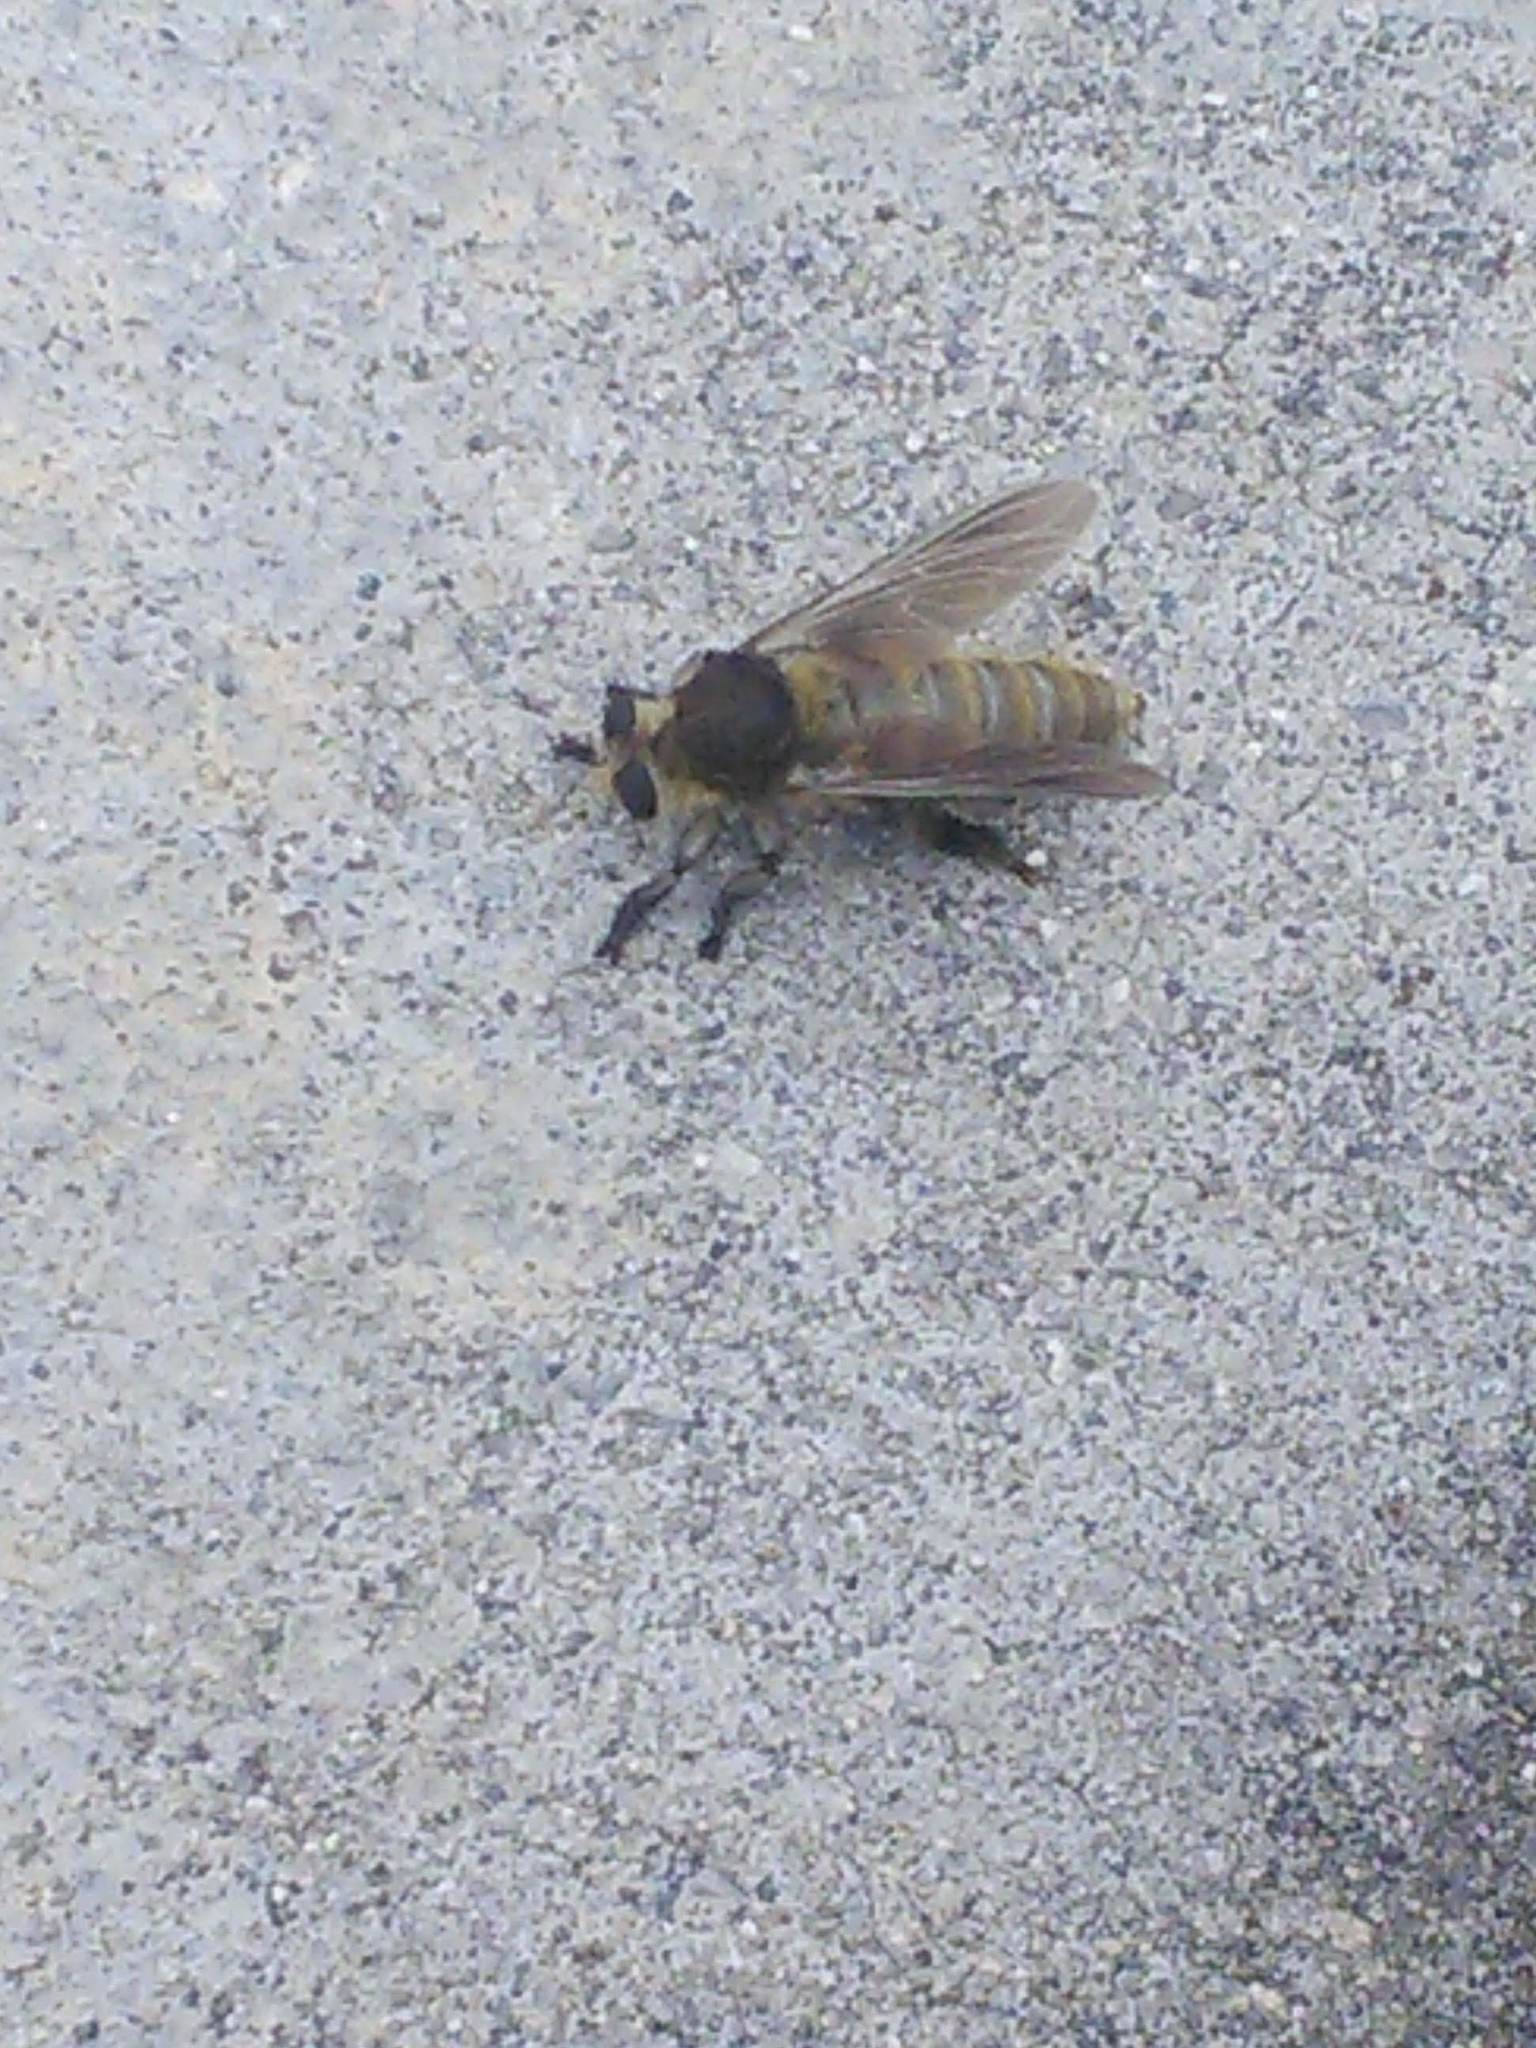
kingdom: Animalia
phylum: Arthropoda
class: Insecta
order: Diptera
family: Asilidae
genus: Mallophora
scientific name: Mallophora fautrix
